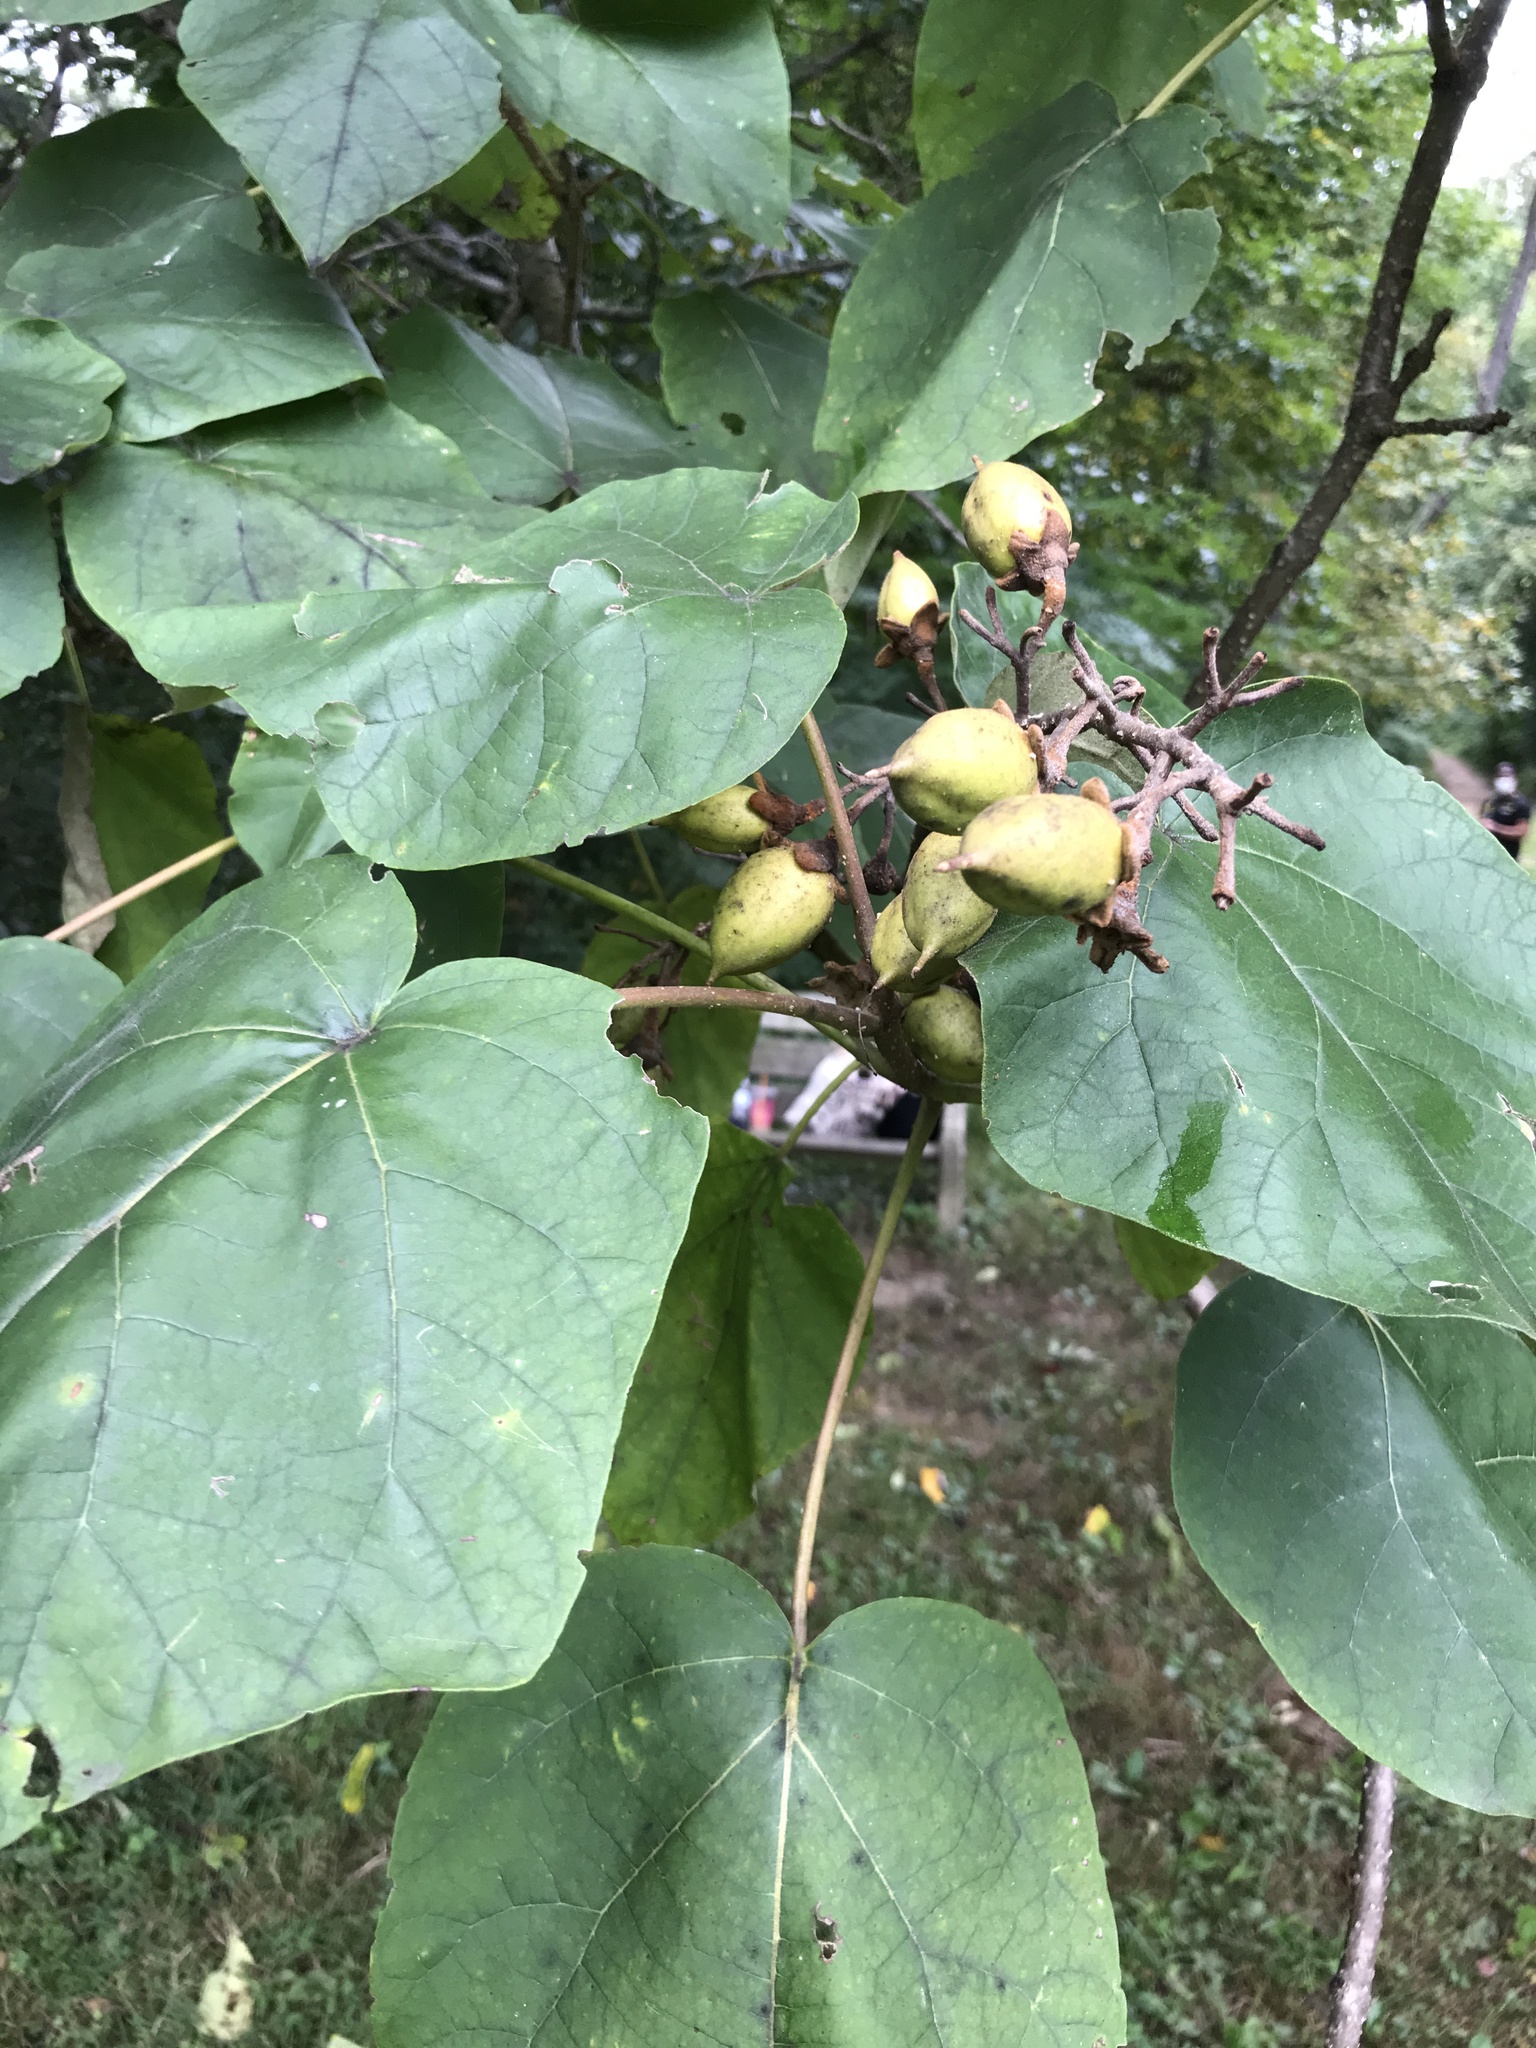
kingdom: Plantae
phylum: Tracheophyta
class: Magnoliopsida
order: Lamiales
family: Paulowniaceae
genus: Paulownia
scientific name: Paulownia tomentosa
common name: Foxglove-tree
